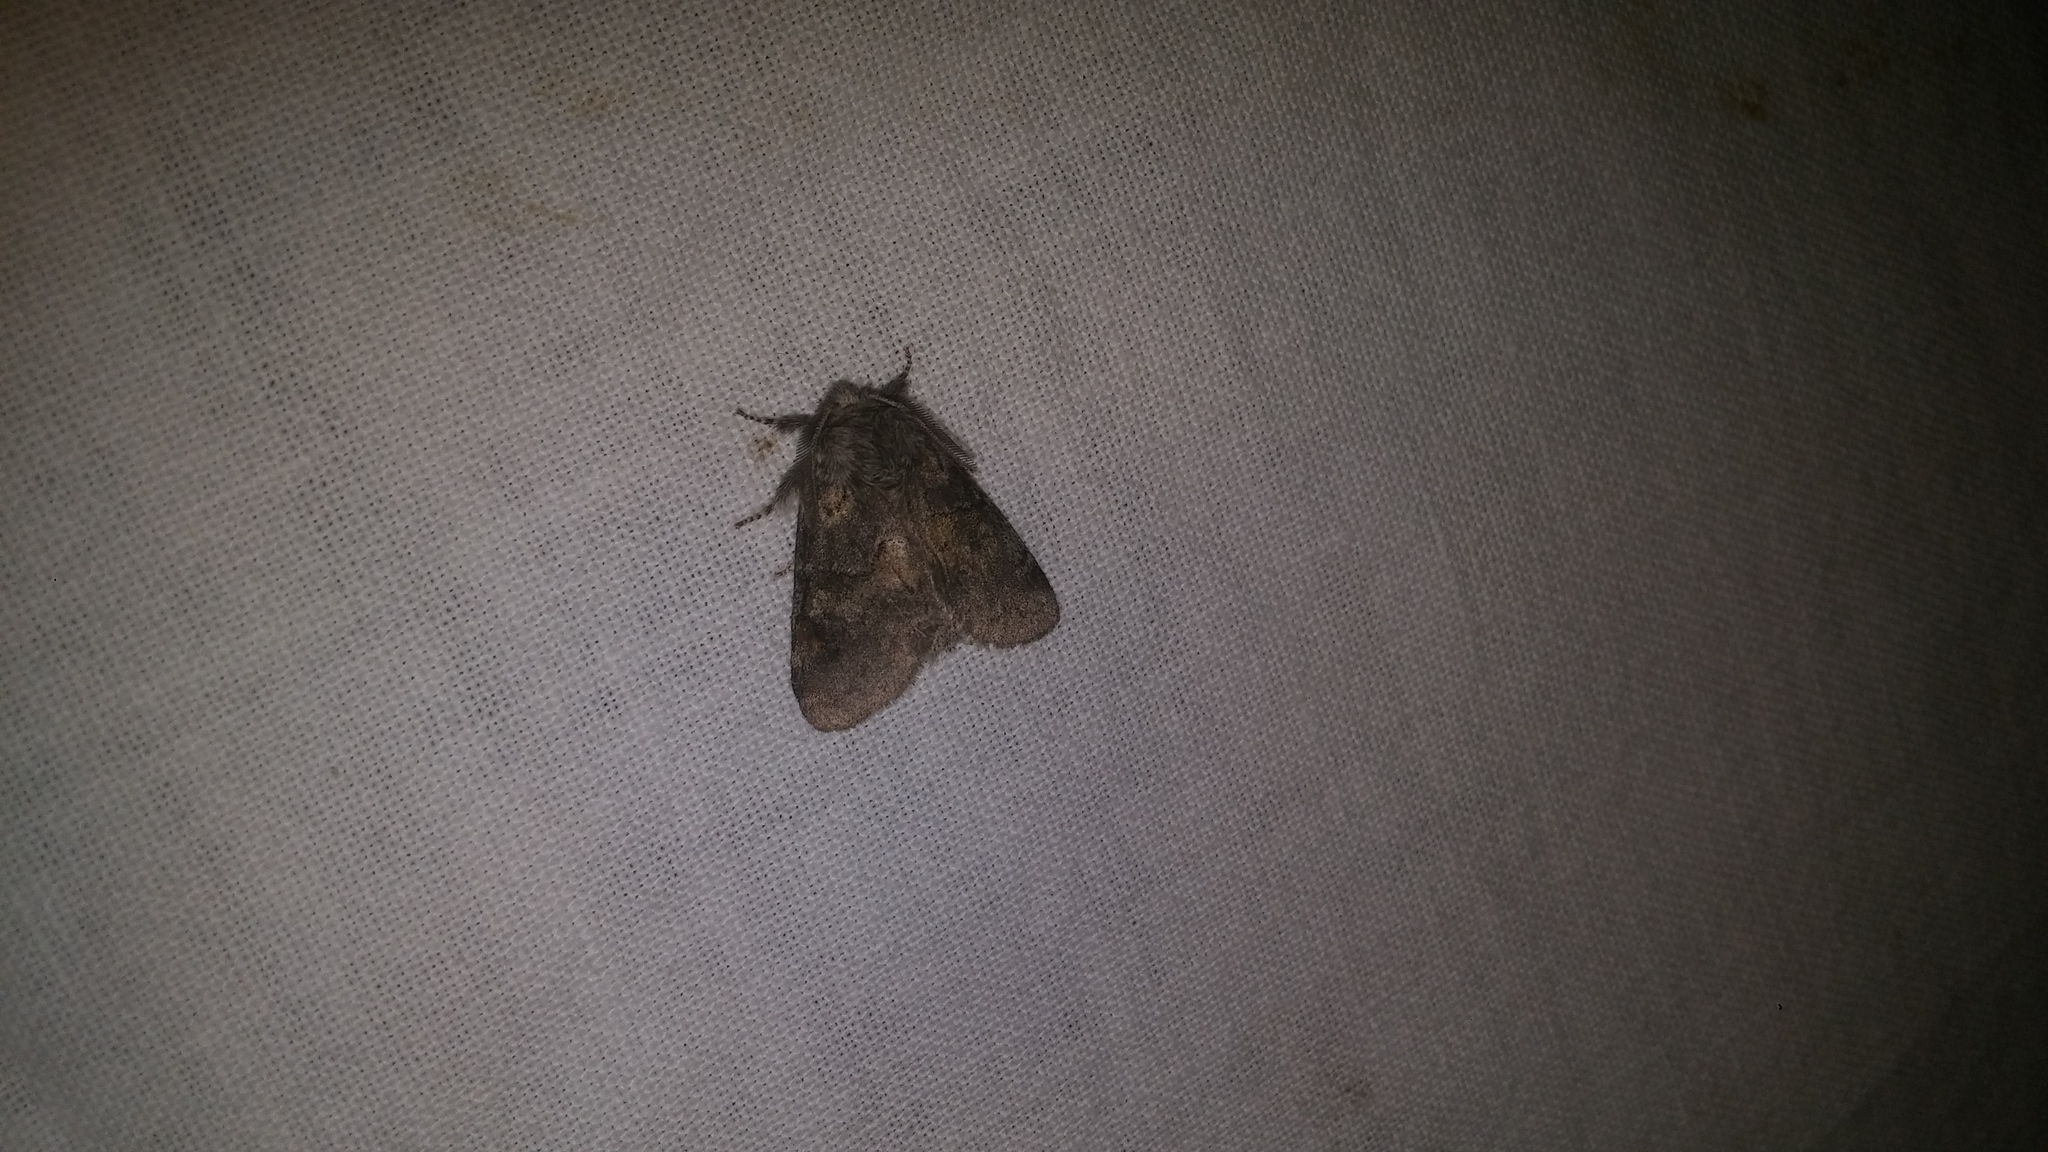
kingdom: Animalia
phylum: Arthropoda
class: Insecta
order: Lepidoptera
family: Notodontidae
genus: Gluphisia
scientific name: Gluphisia septentrionis
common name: Common gluphisia
